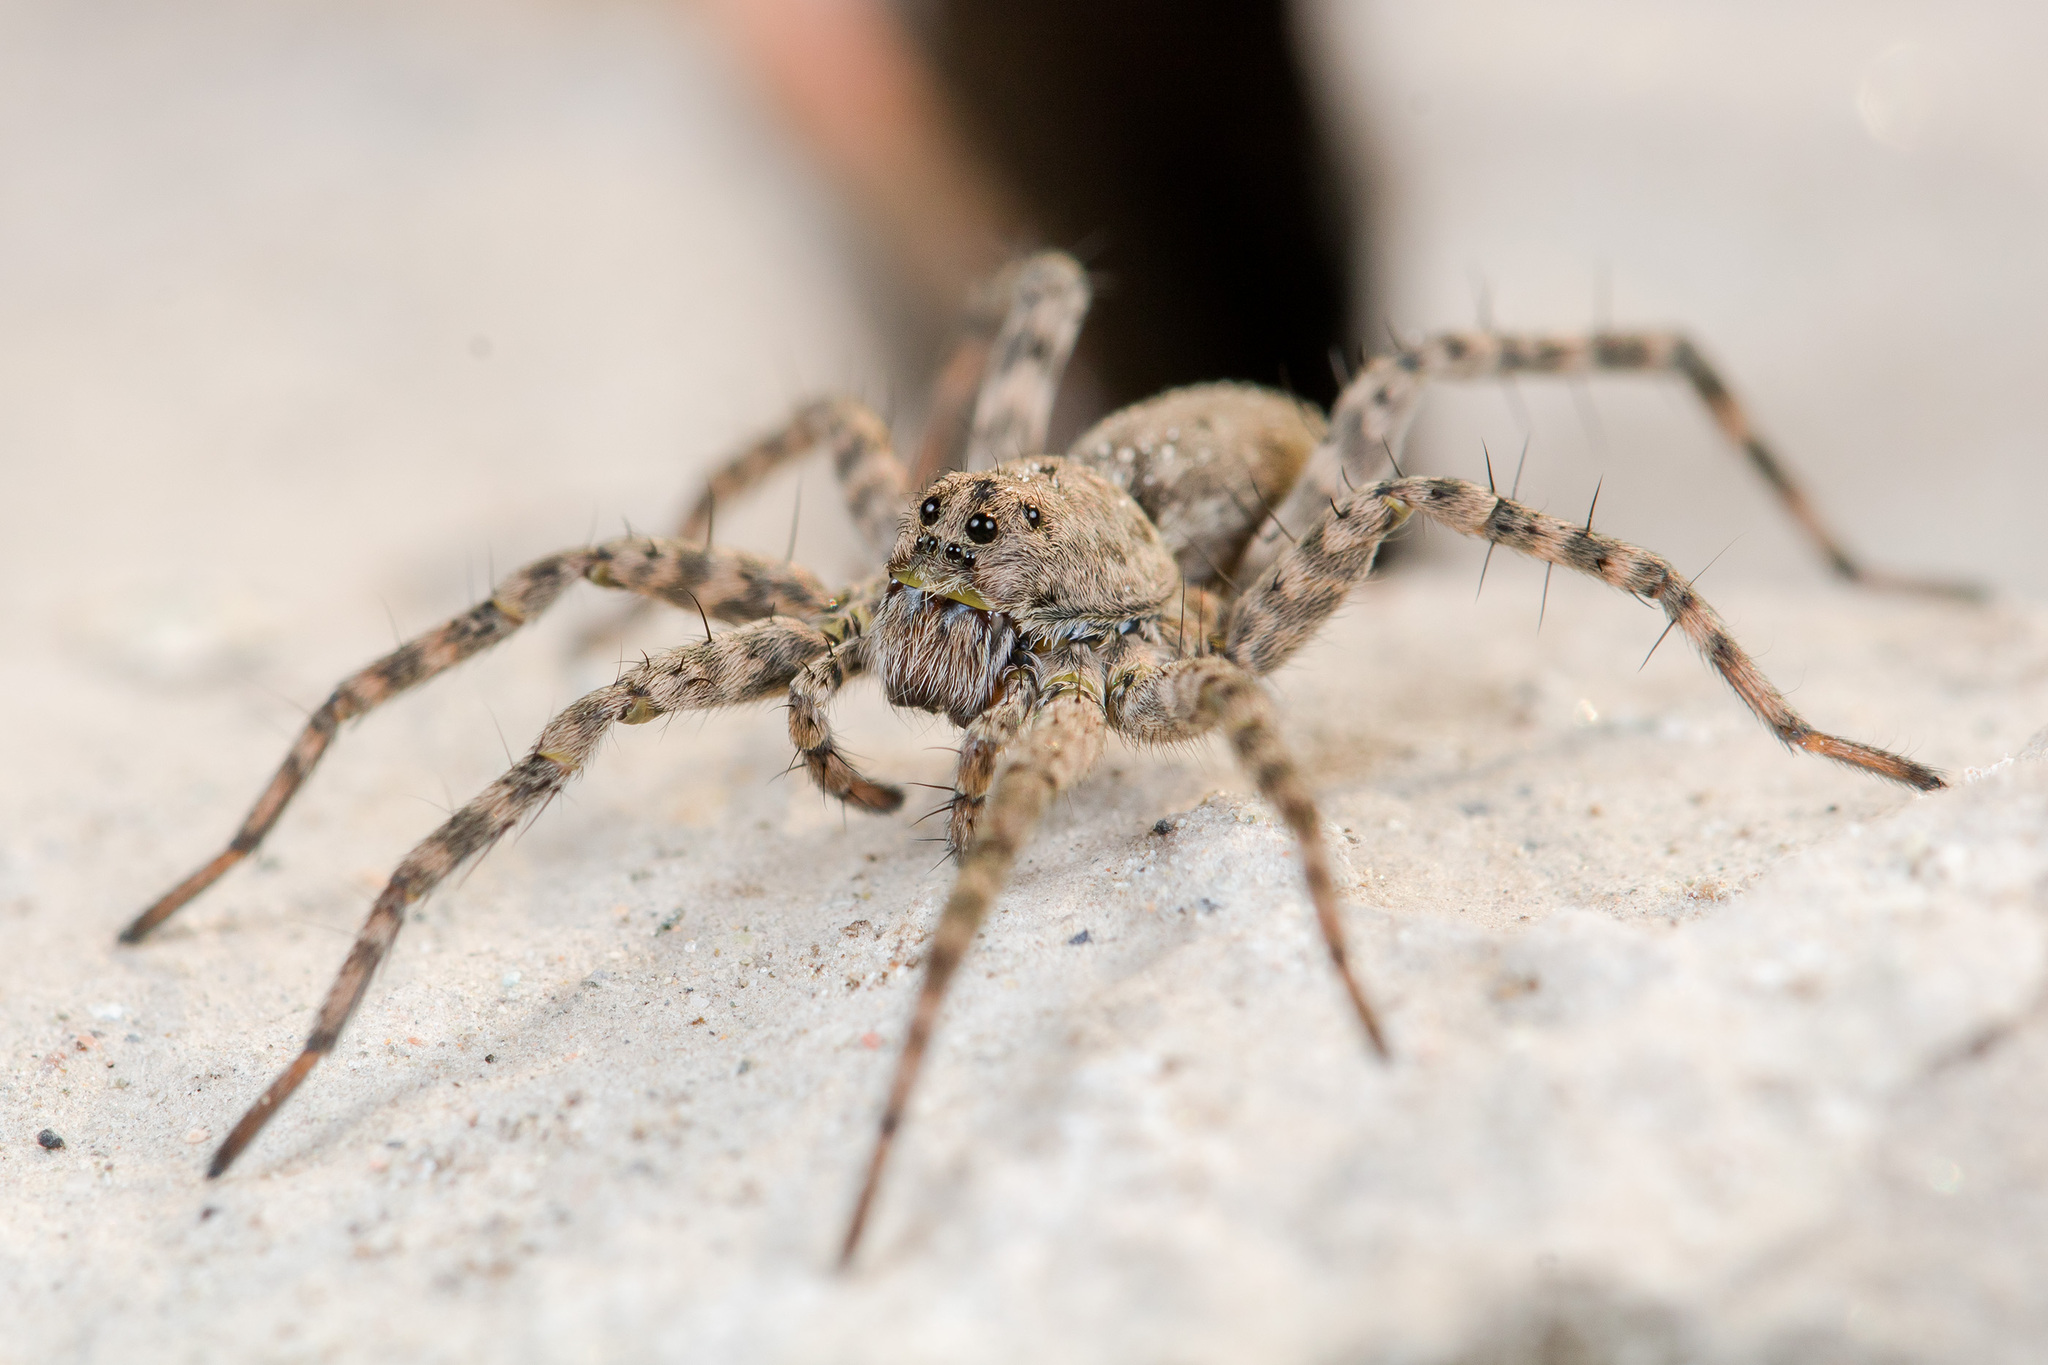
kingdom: Animalia
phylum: Arthropoda
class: Arachnida
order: Araneae
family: Lycosidae
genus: Pardosa
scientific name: Pardosa nebulosa
